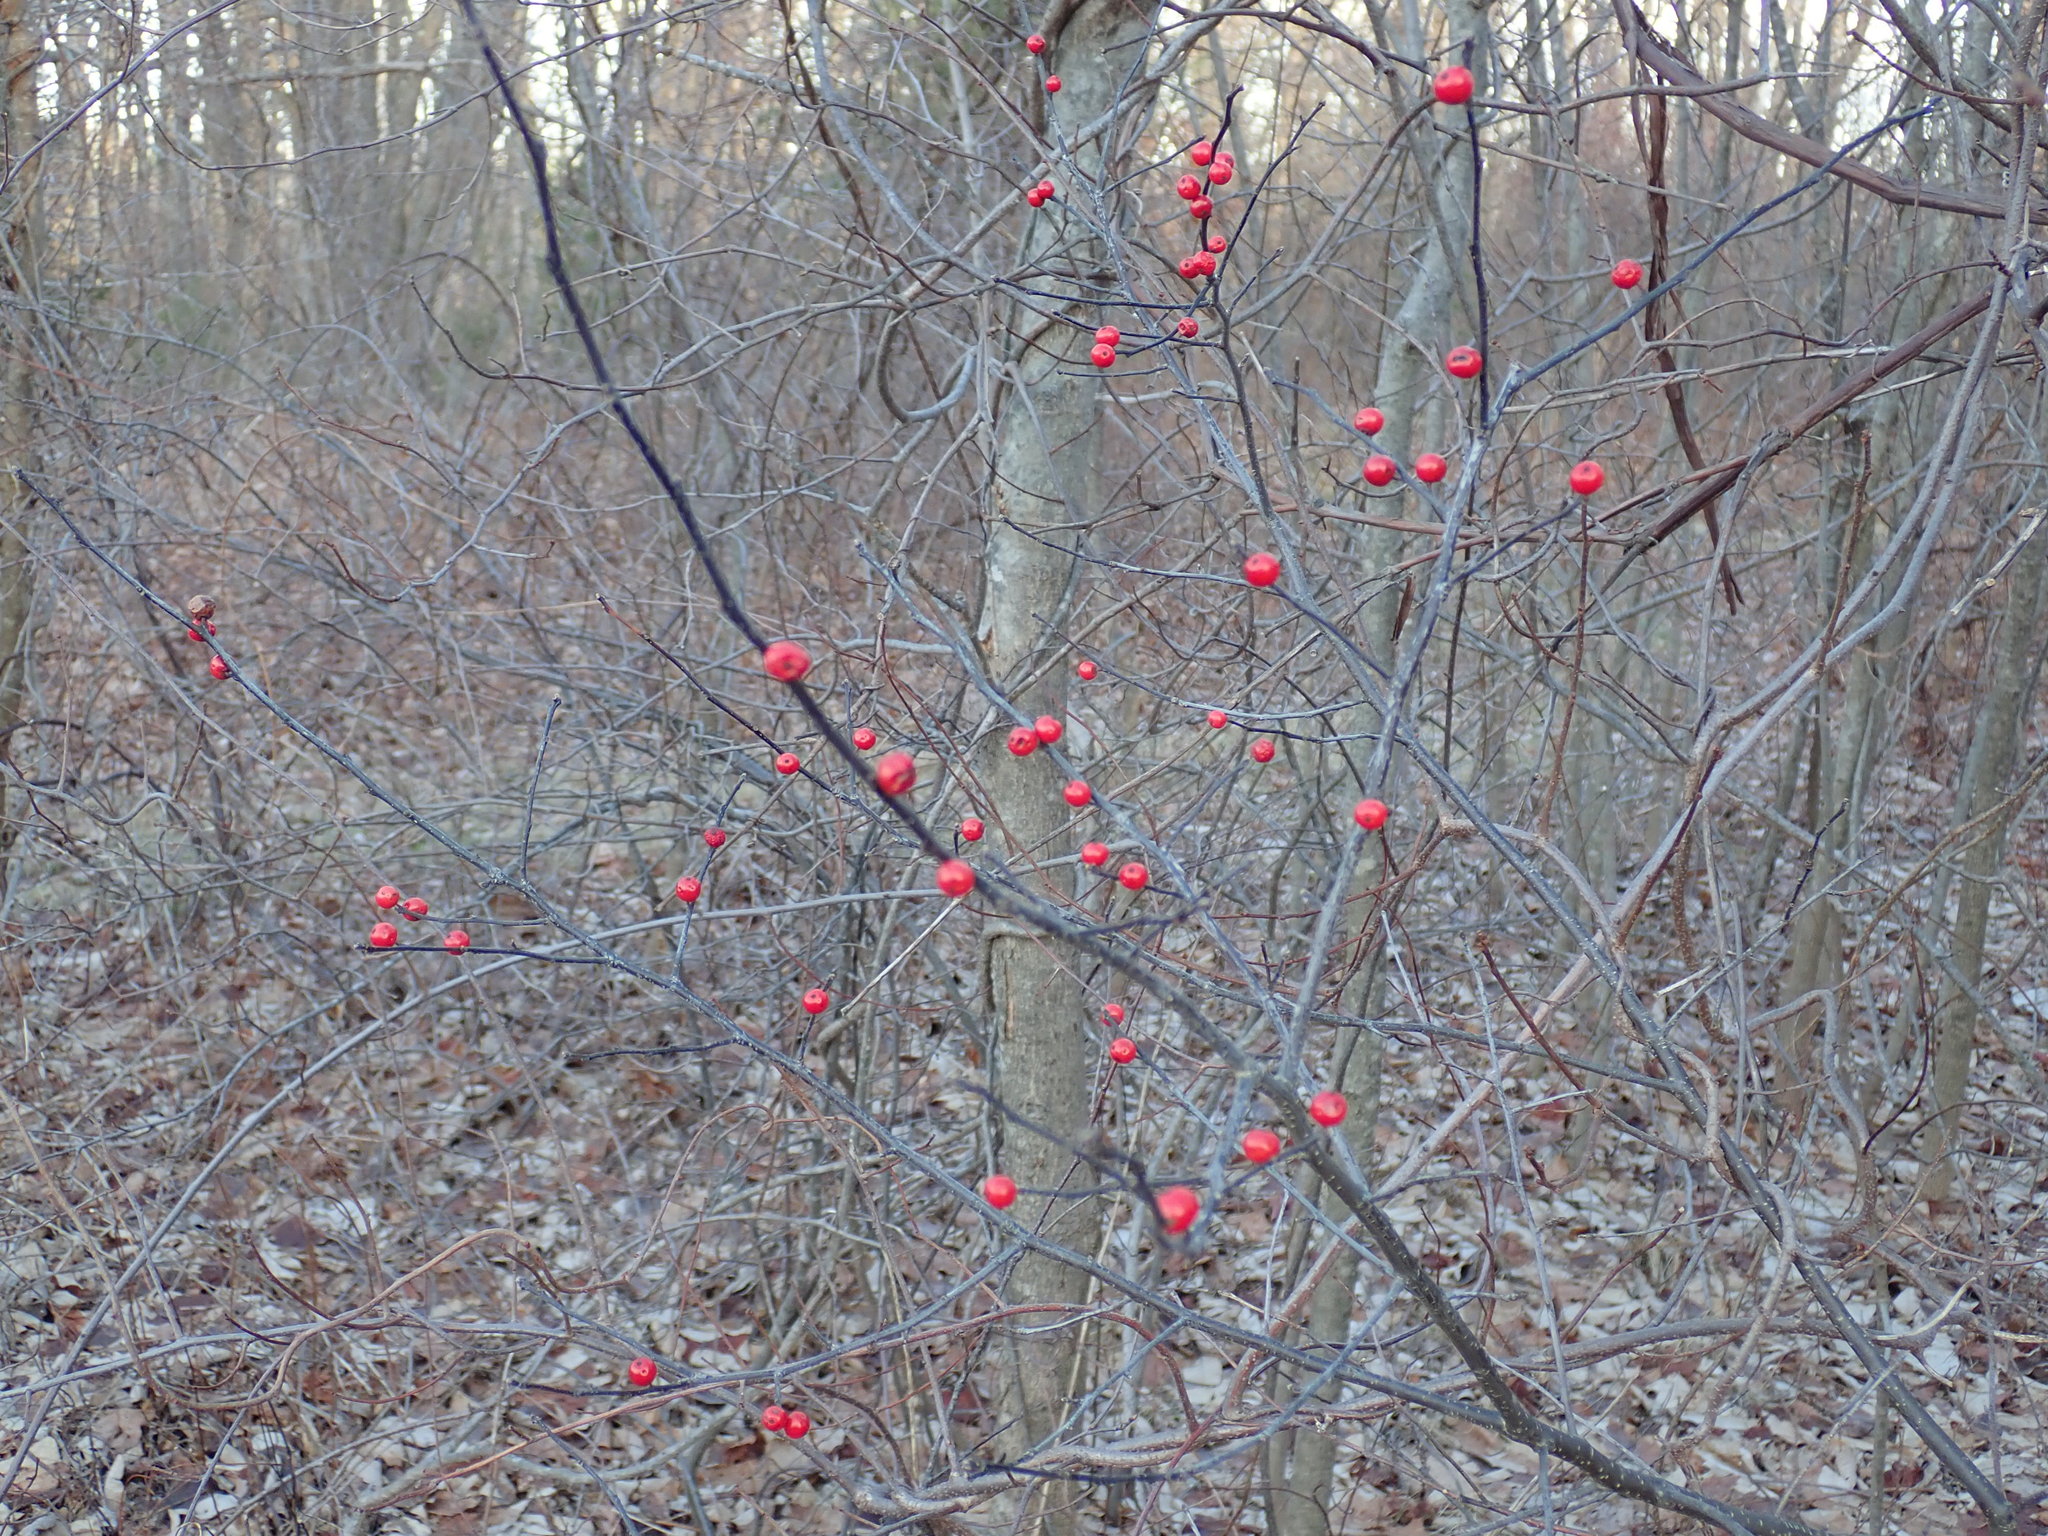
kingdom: Plantae
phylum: Tracheophyta
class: Magnoliopsida
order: Aquifoliales
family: Aquifoliaceae
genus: Ilex
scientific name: Ilex verticillata
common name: Virginia winterberry
